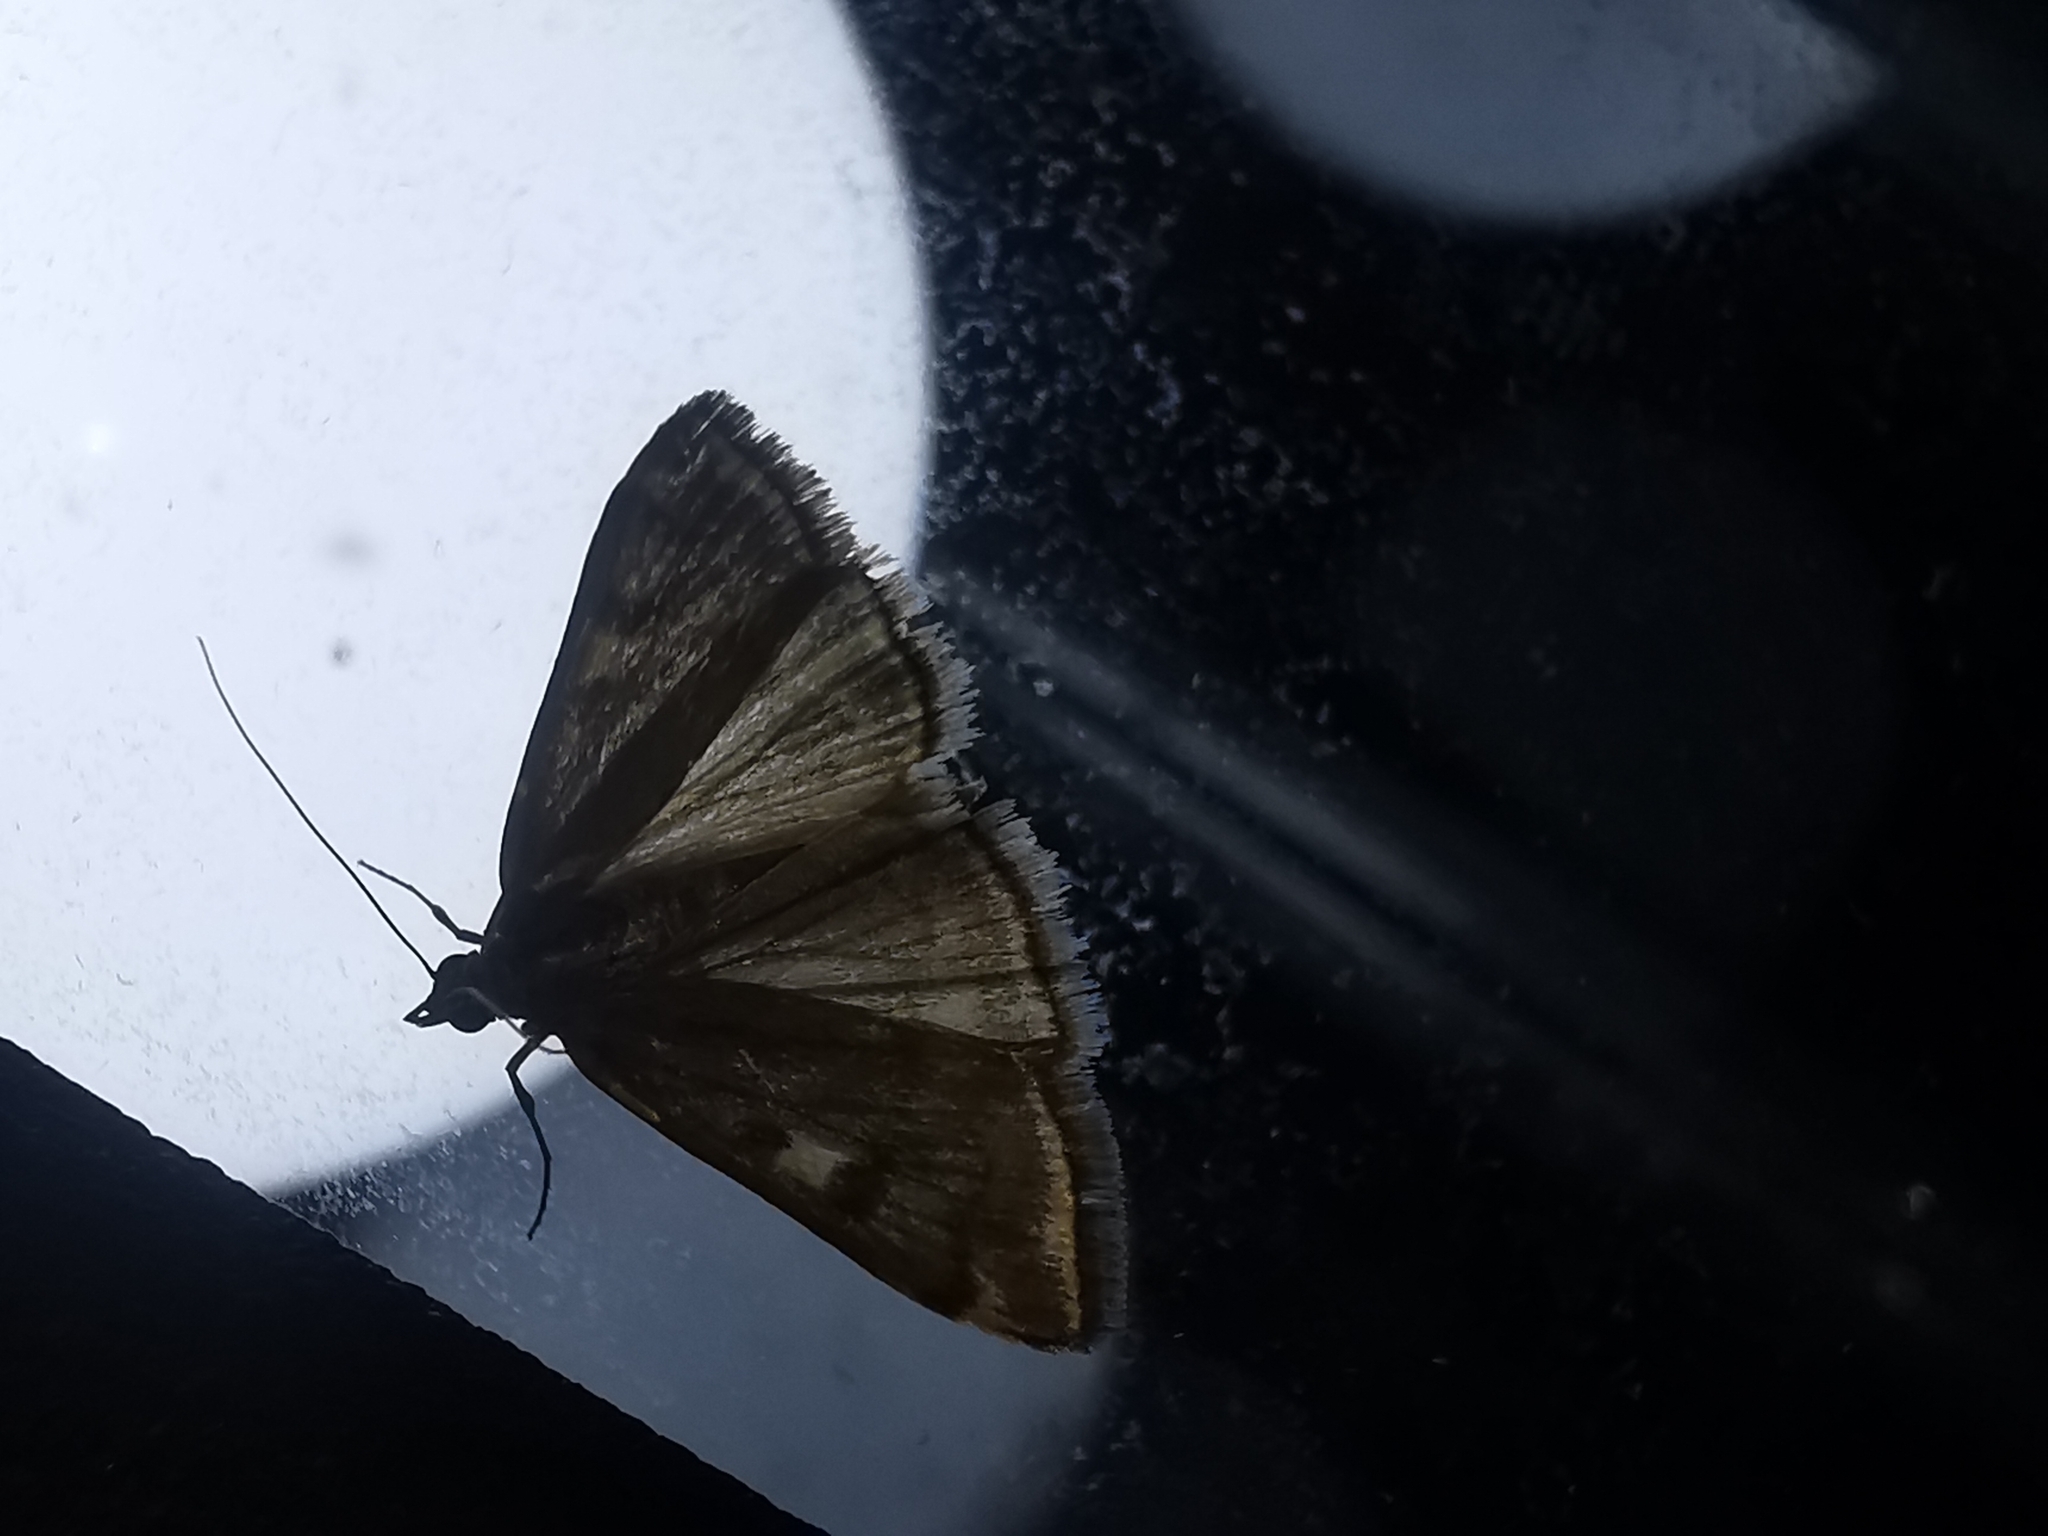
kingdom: Animalia
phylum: Arthropoda
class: Insecta
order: Lepidoptera
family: Crambidae
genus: Loxostege
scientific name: Loxostege sticticalis
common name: Crambid moth
